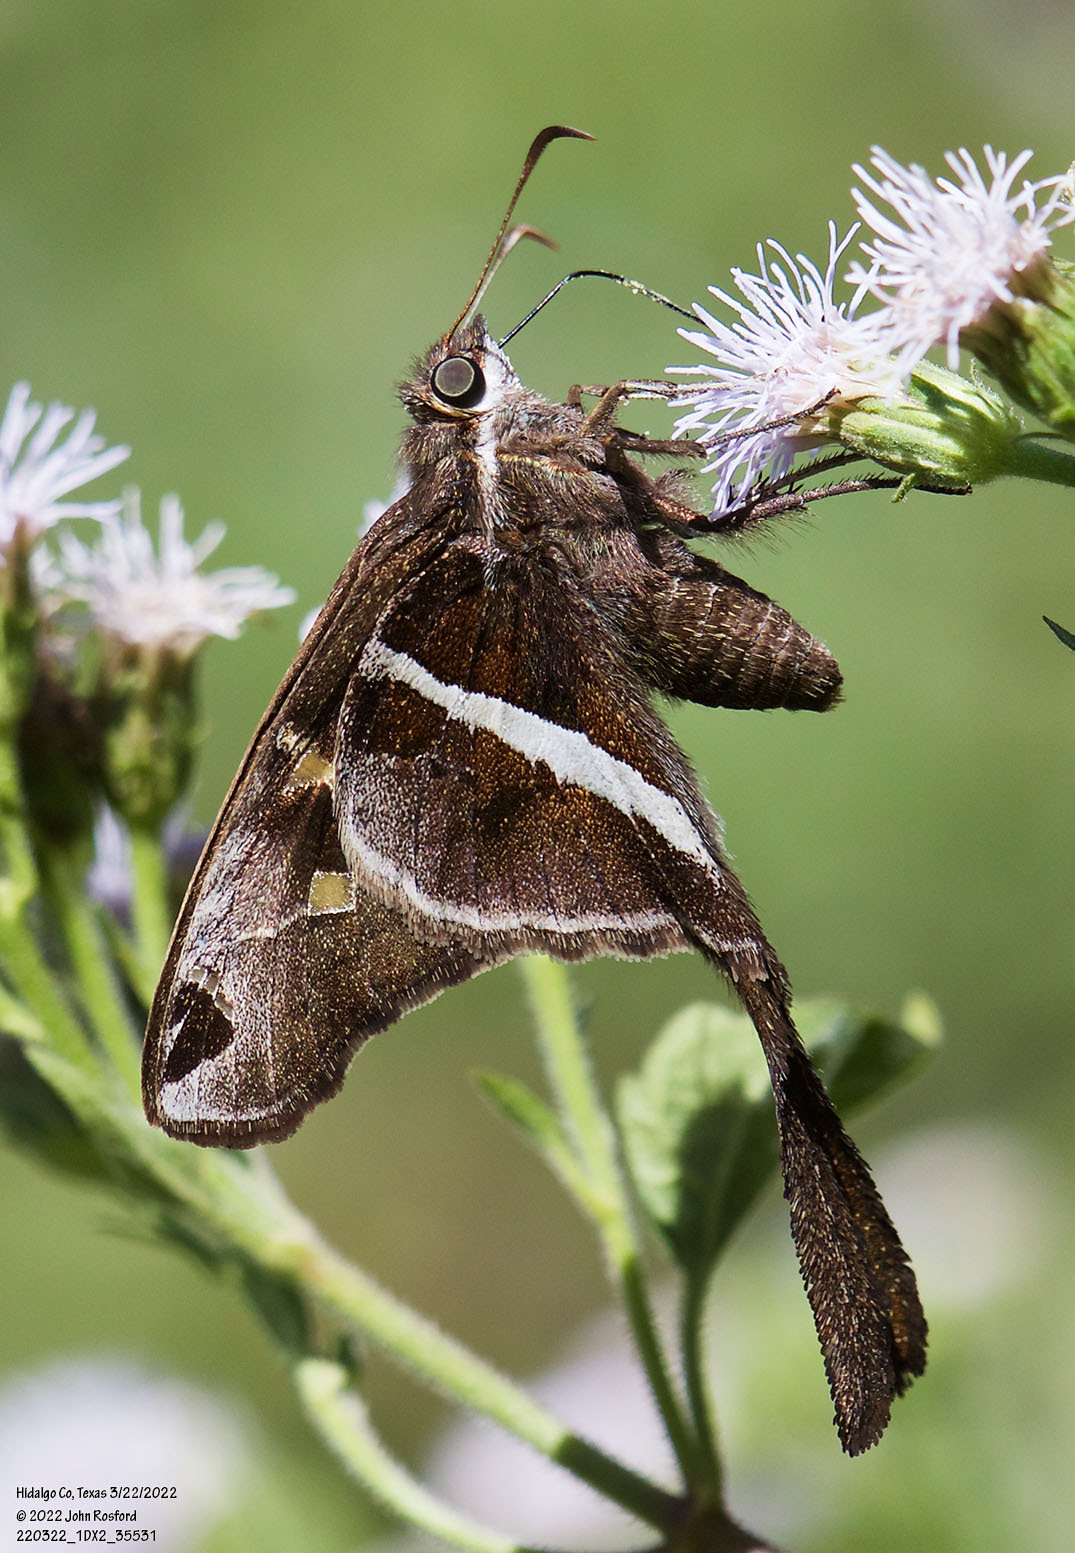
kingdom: Animalia
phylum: Arthropoda
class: Insecta
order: Lepidoptera
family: Hesperiidae
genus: Chioides
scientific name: Chioides catillus
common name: Silverbanded skipper
